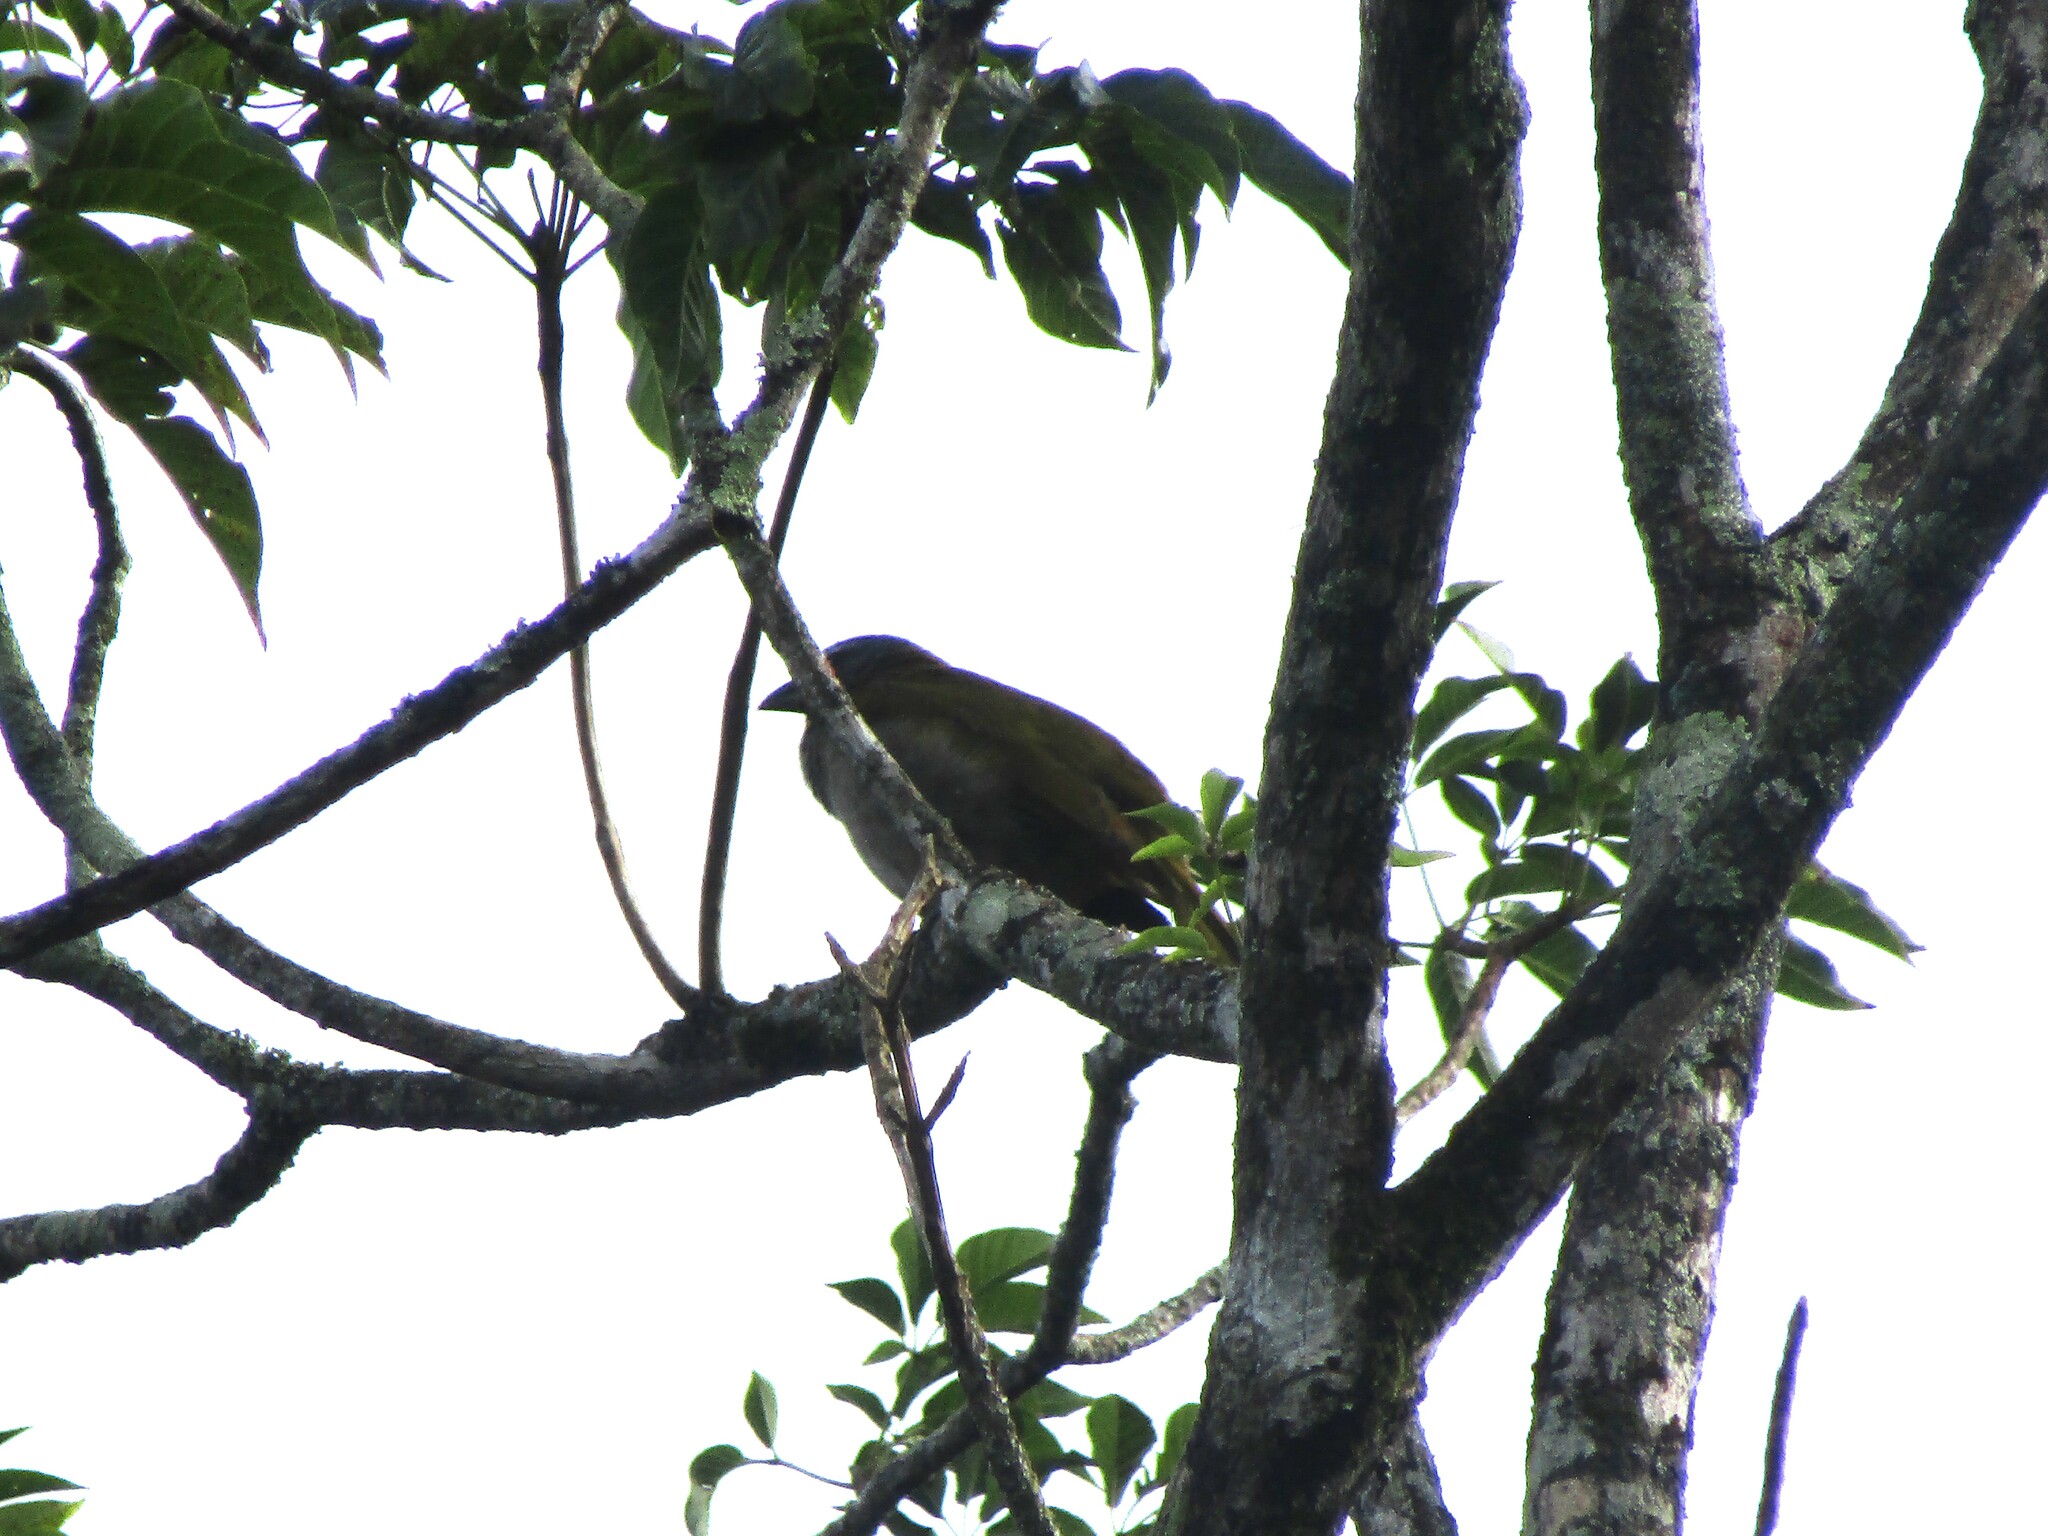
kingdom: Animalia
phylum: Chordata
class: Aves
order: Passeriformes
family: Thraupidae
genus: Saltator
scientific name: Saltator maximus
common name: Buff-throated saltator
